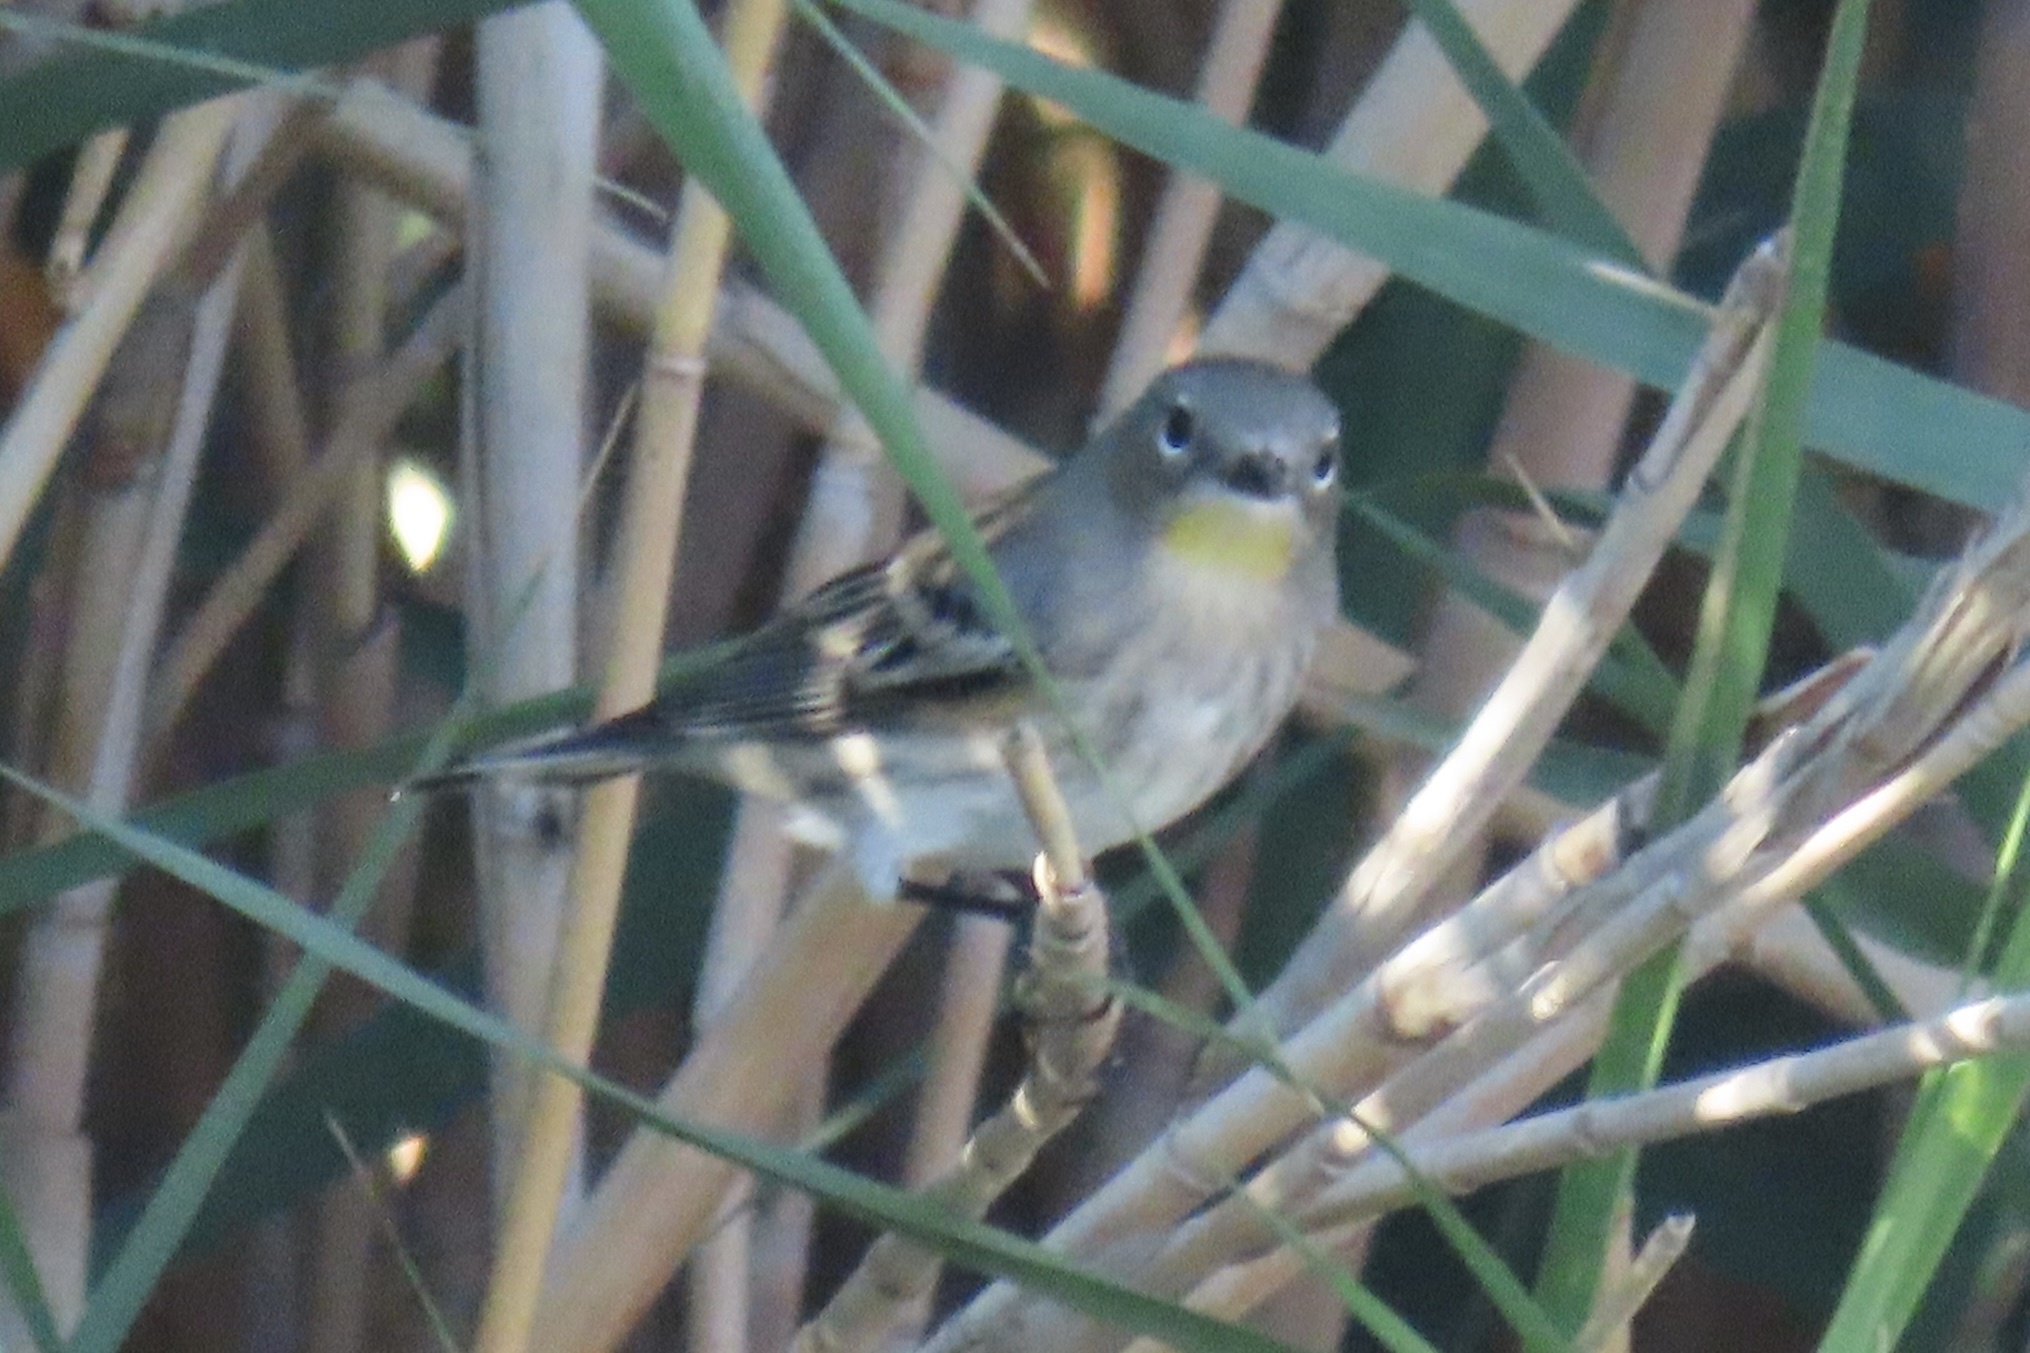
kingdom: Animalia
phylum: Chordata
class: Aves
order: Passeriformes
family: Parulidae
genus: Setophaga
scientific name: Setophaga coronata
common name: Myrtle warbler
